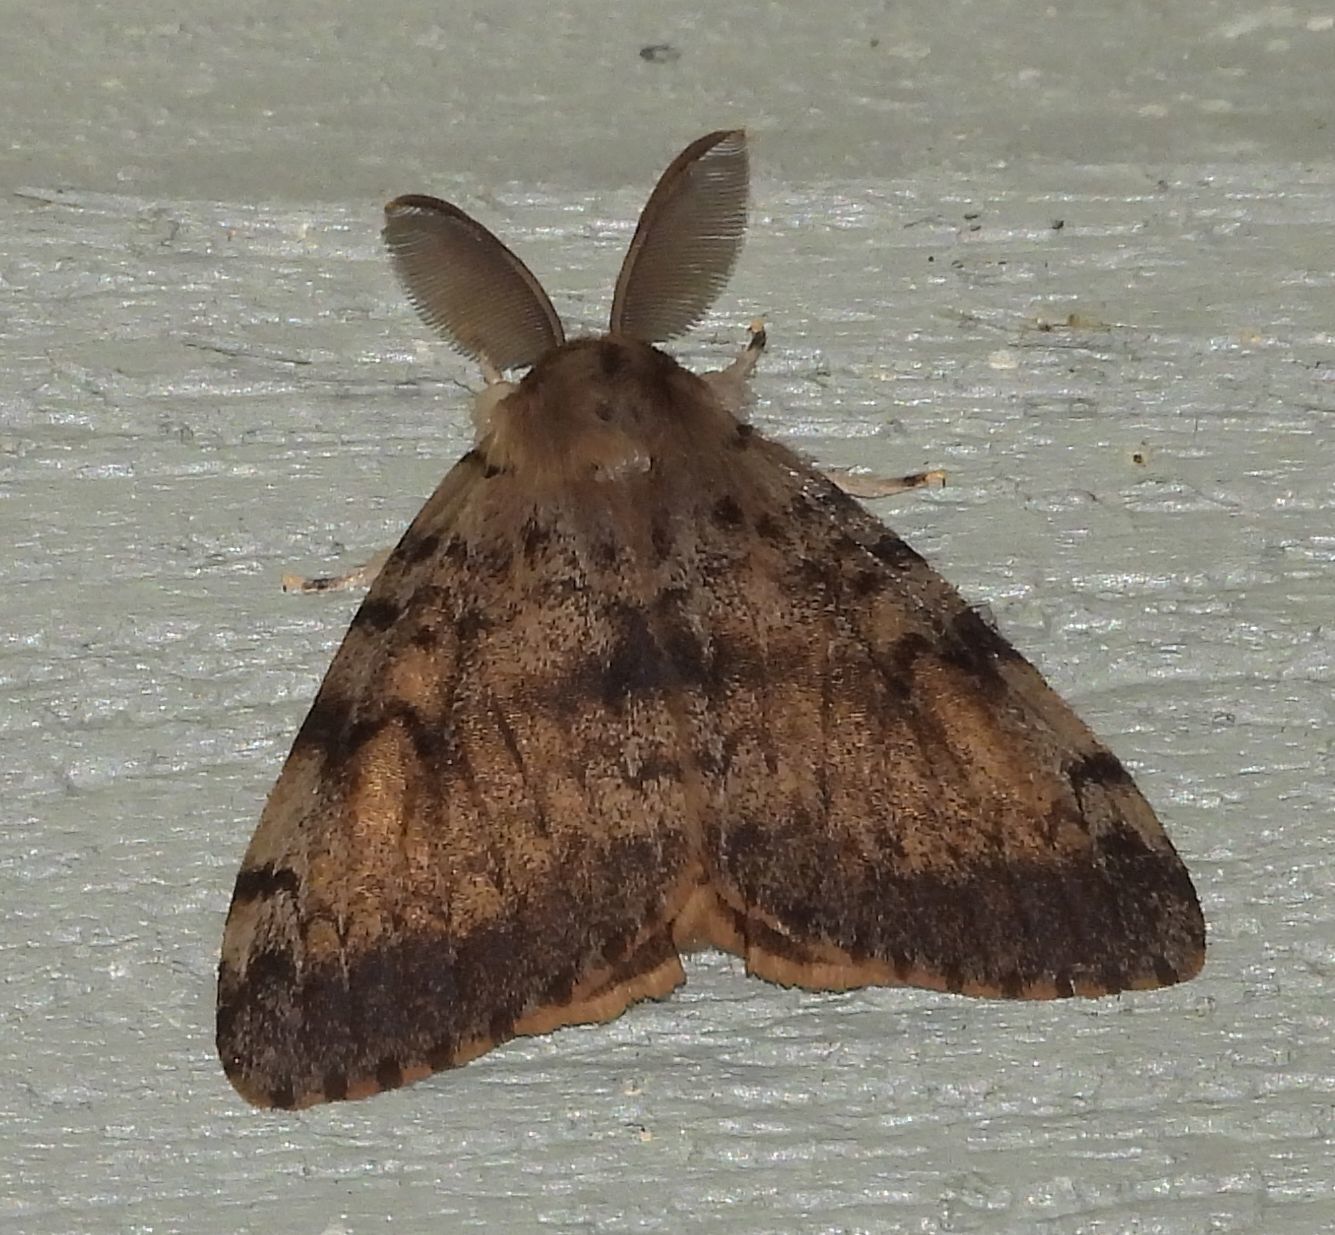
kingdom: Animalia
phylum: Arthropoda
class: Insecta
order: Lepidoptera
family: Erebidae
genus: Lymantria
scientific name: Lymantria dispar
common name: Gypsy moth
